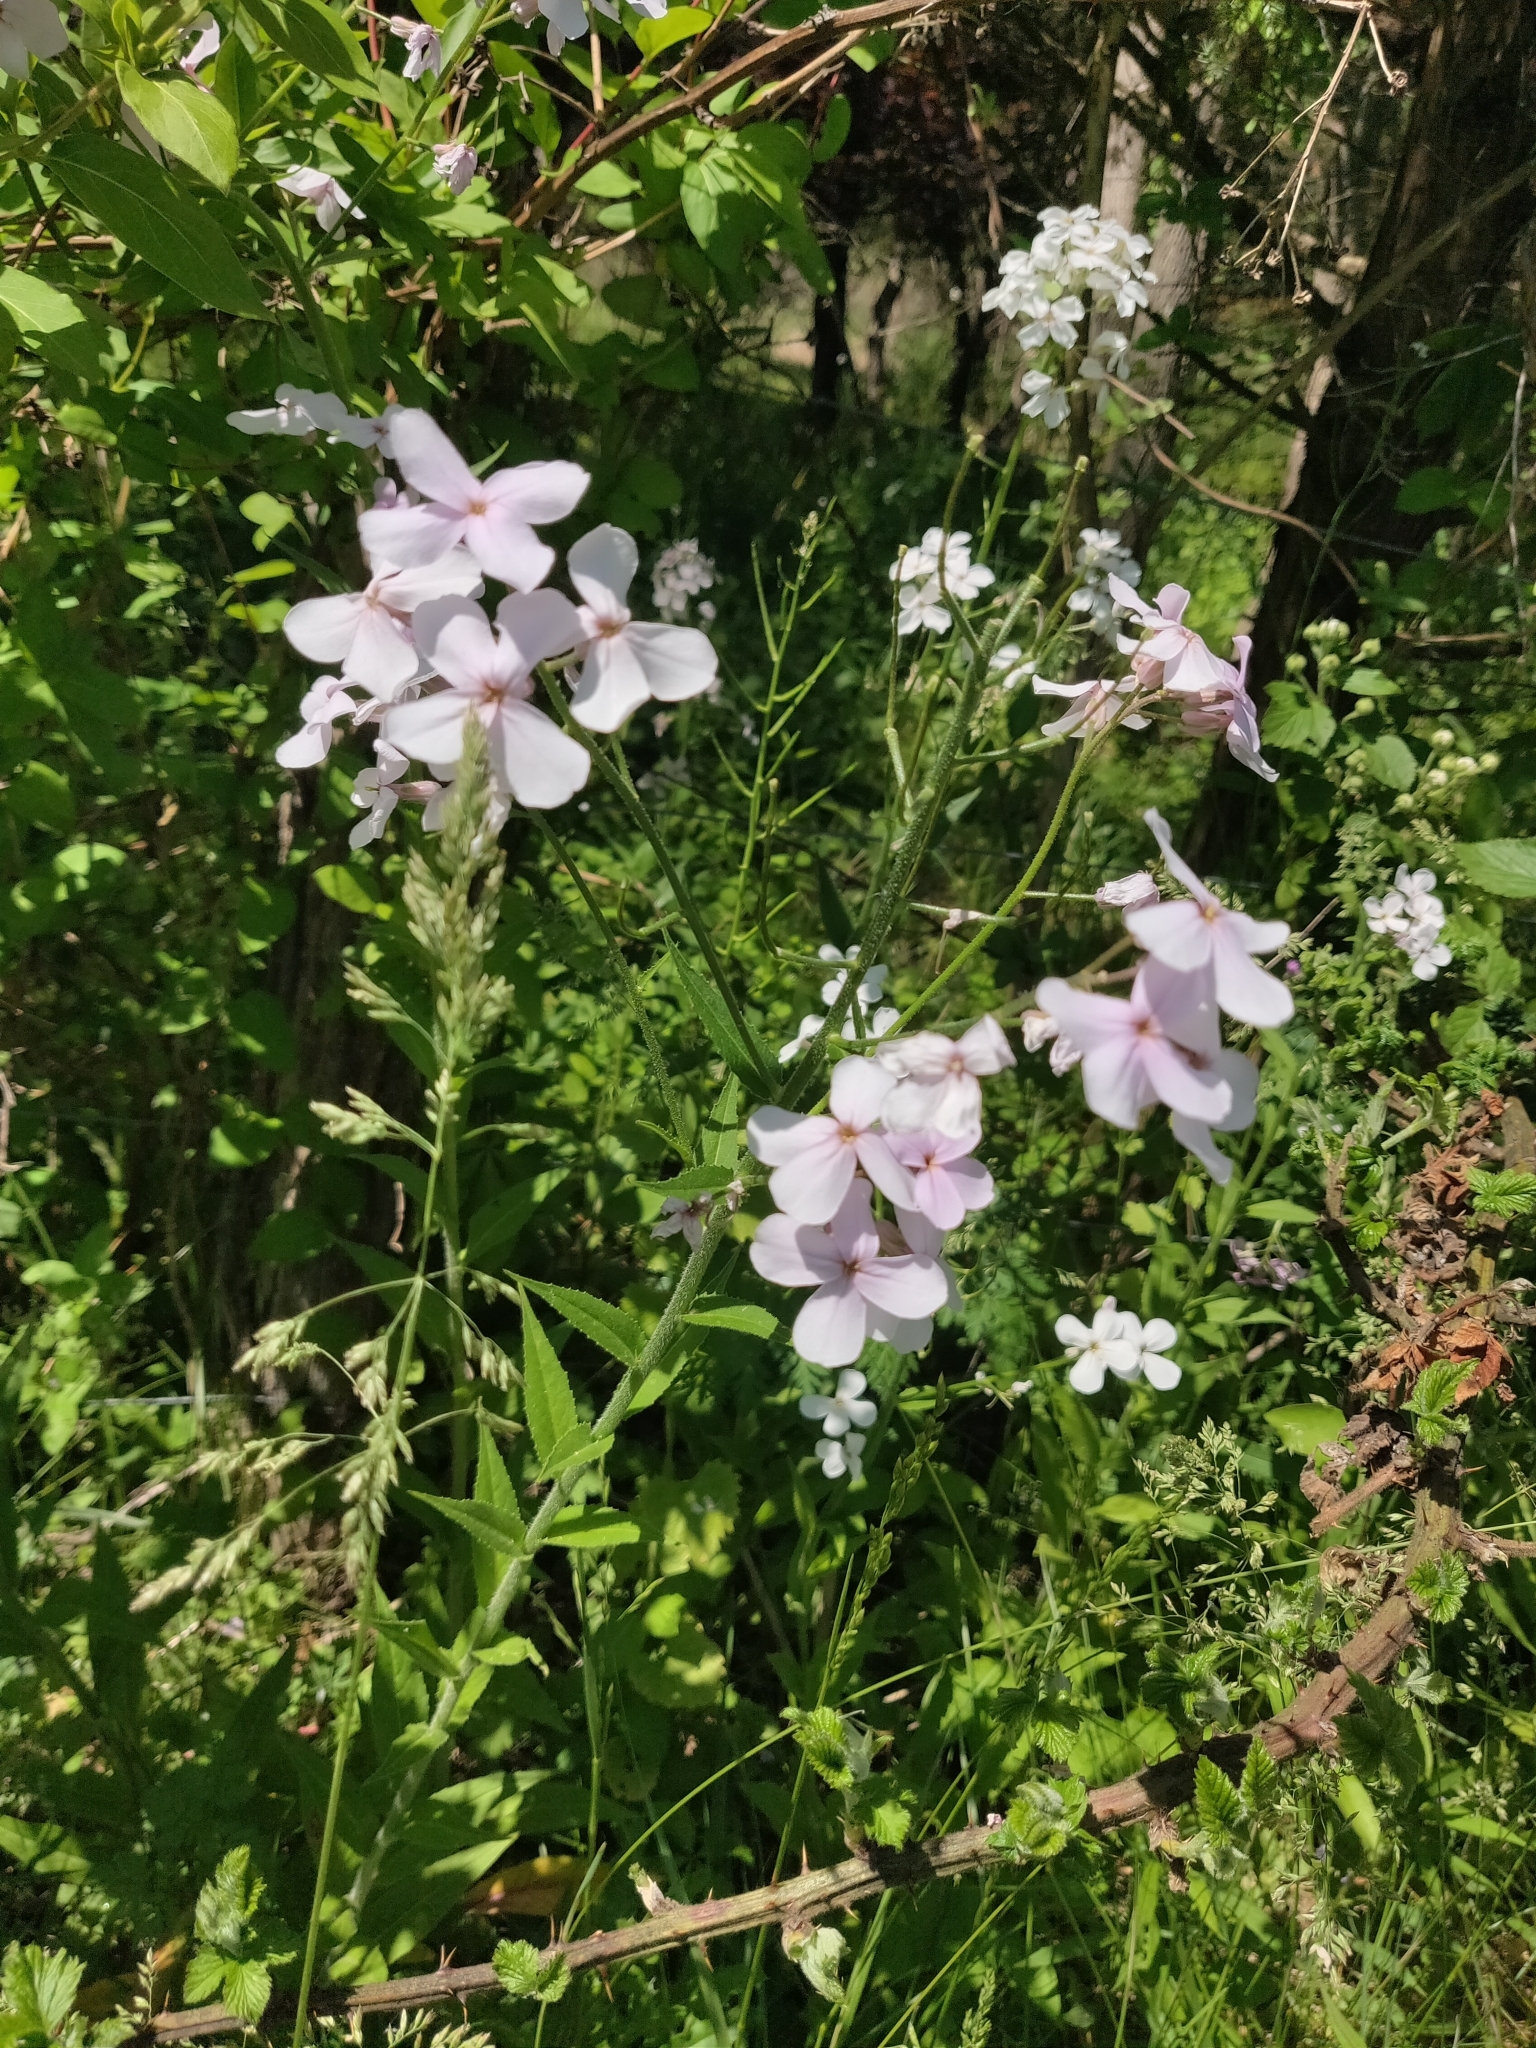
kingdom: Plantae
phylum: Tracheophyta
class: Magnoliopsida
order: Brassicales
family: Brassicaceae
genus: Hesperis
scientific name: Hesperis matronalis
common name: Dame's-violet
